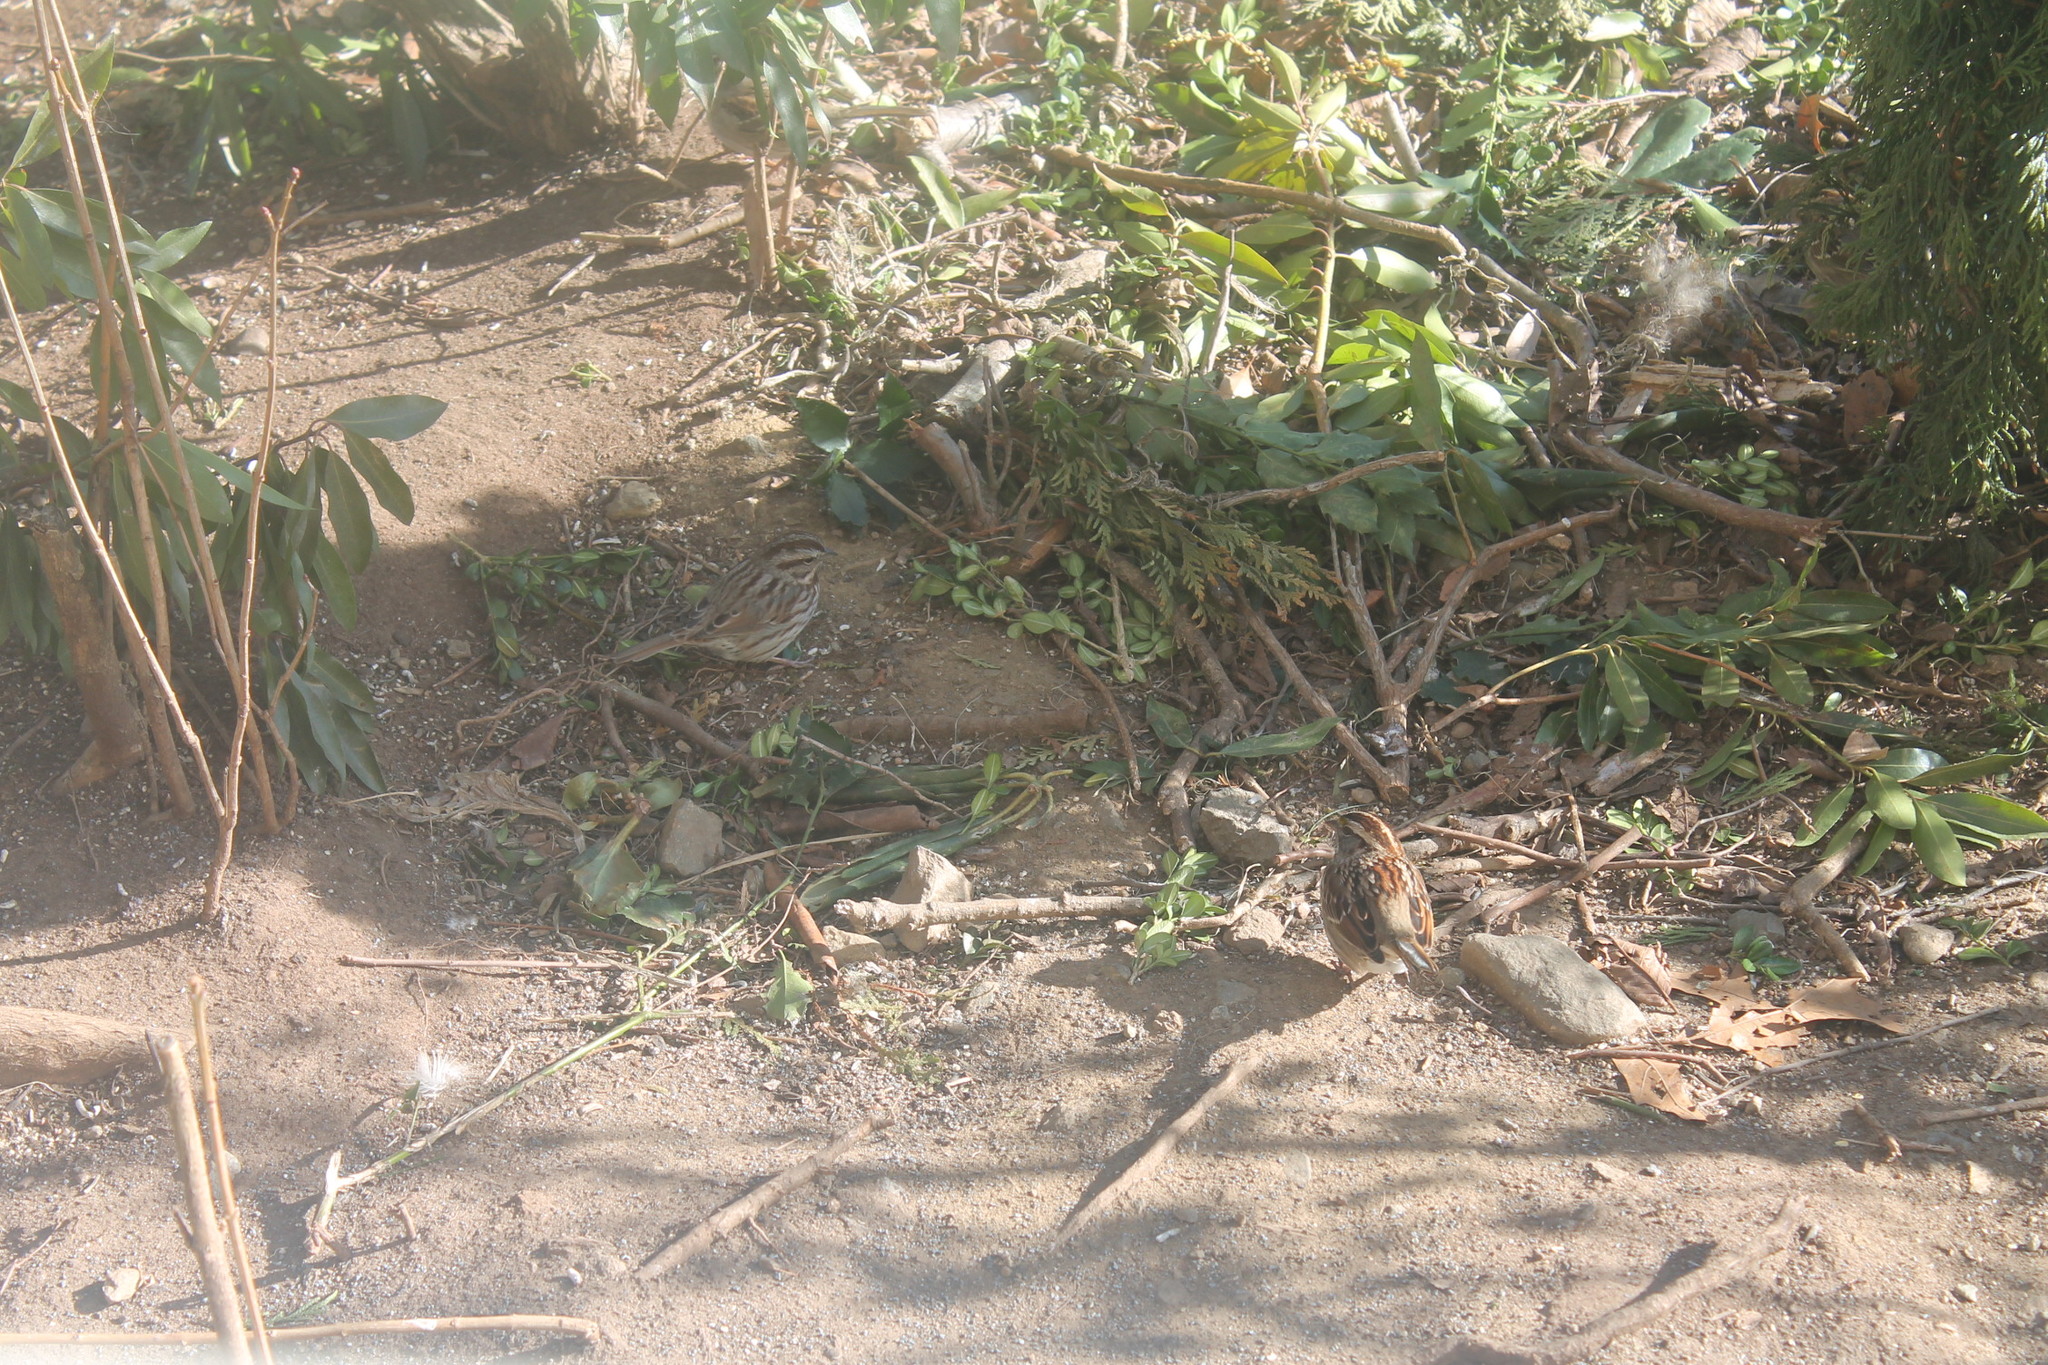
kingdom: Animalia
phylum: Chordata
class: Aves
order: Passeriformes
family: Passerellidae
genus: Melospiza
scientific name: Melospiza melodia
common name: Song sparrow
